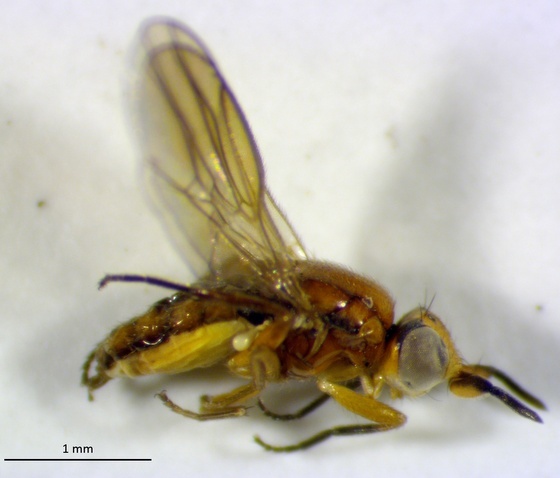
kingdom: Animalia
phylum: Arthropoda
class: Insecta
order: Diptera
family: Chloropidae
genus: Ceratobarys
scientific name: Ceratobarys eulophus
